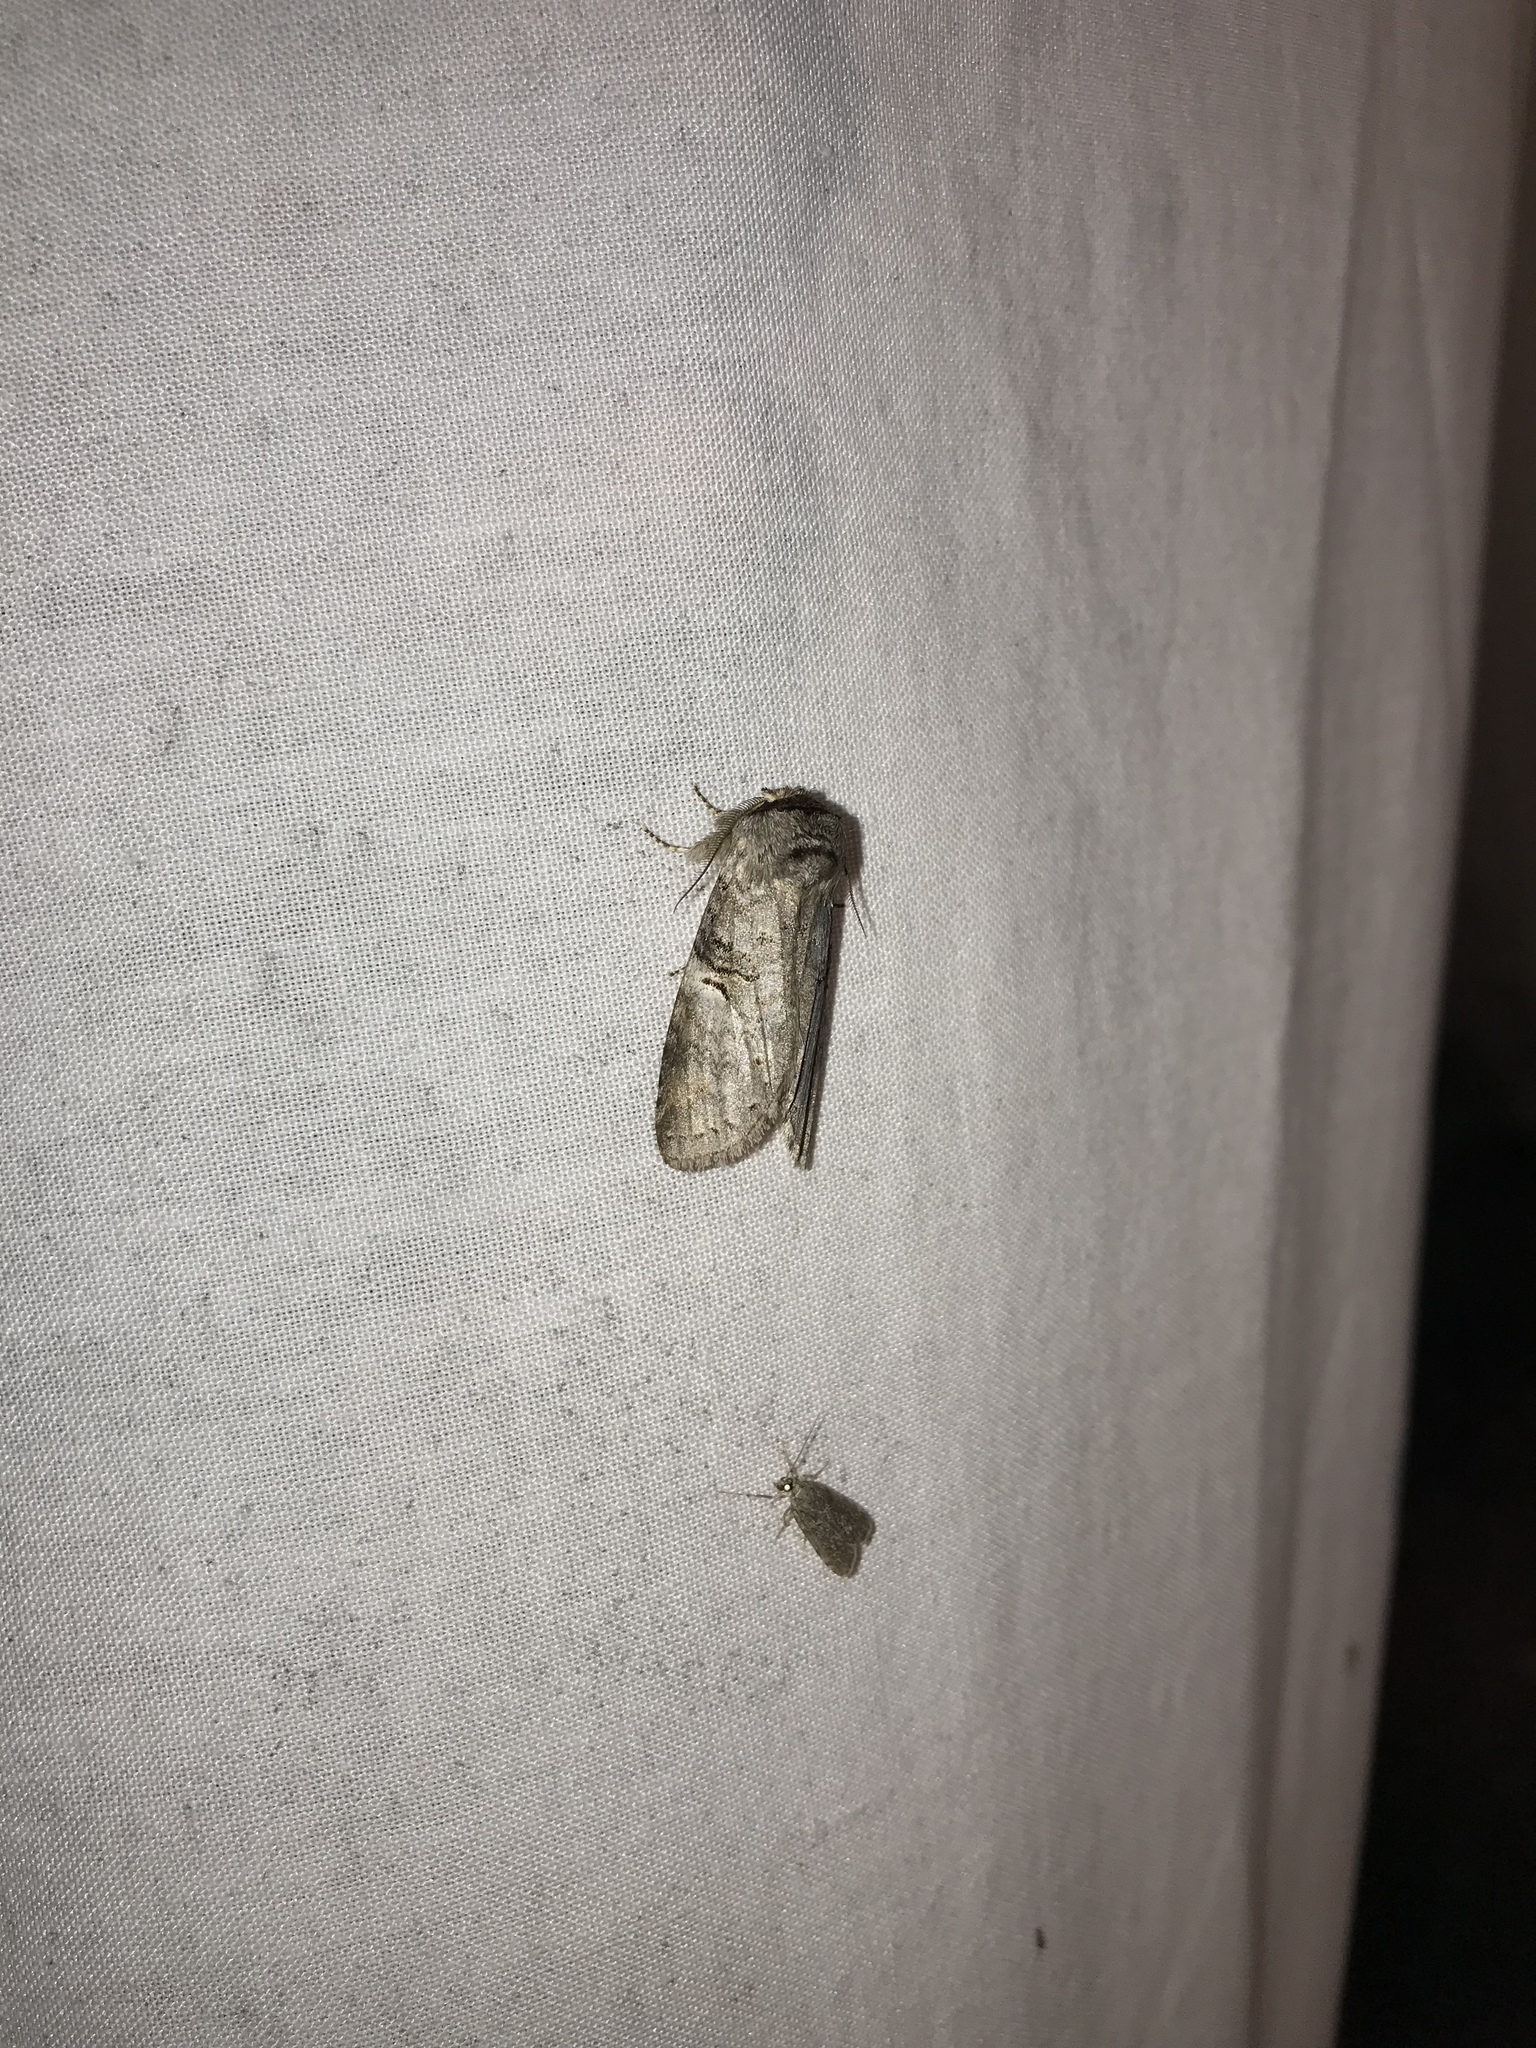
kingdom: Animalia
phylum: Arthropoda
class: Insecta
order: Lepidoptera
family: Notodontidae
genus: Ellida
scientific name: Ellida caniplaga
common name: Linden prominent
